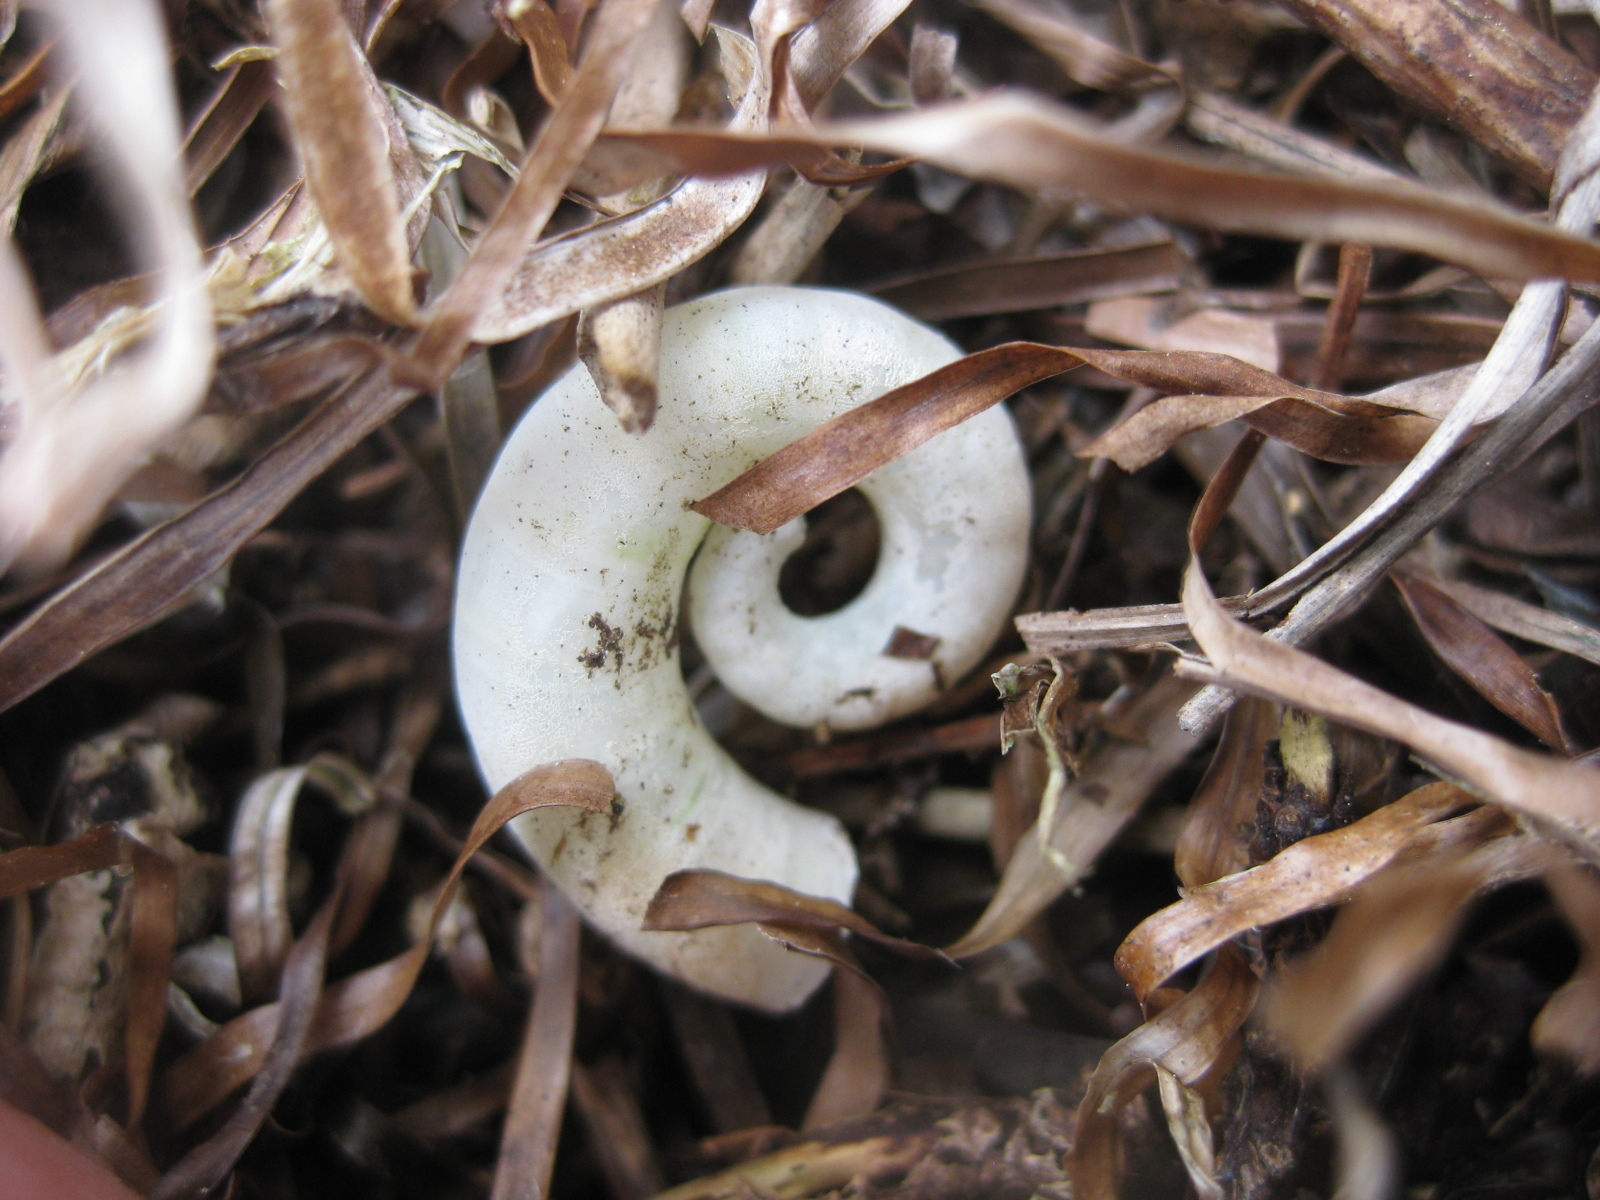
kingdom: Animalia
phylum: Mollusca
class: Cephalopoda
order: Spirulida
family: Spirulidae
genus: Spirula
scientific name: Spirula spirula
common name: Ram's horn squid
